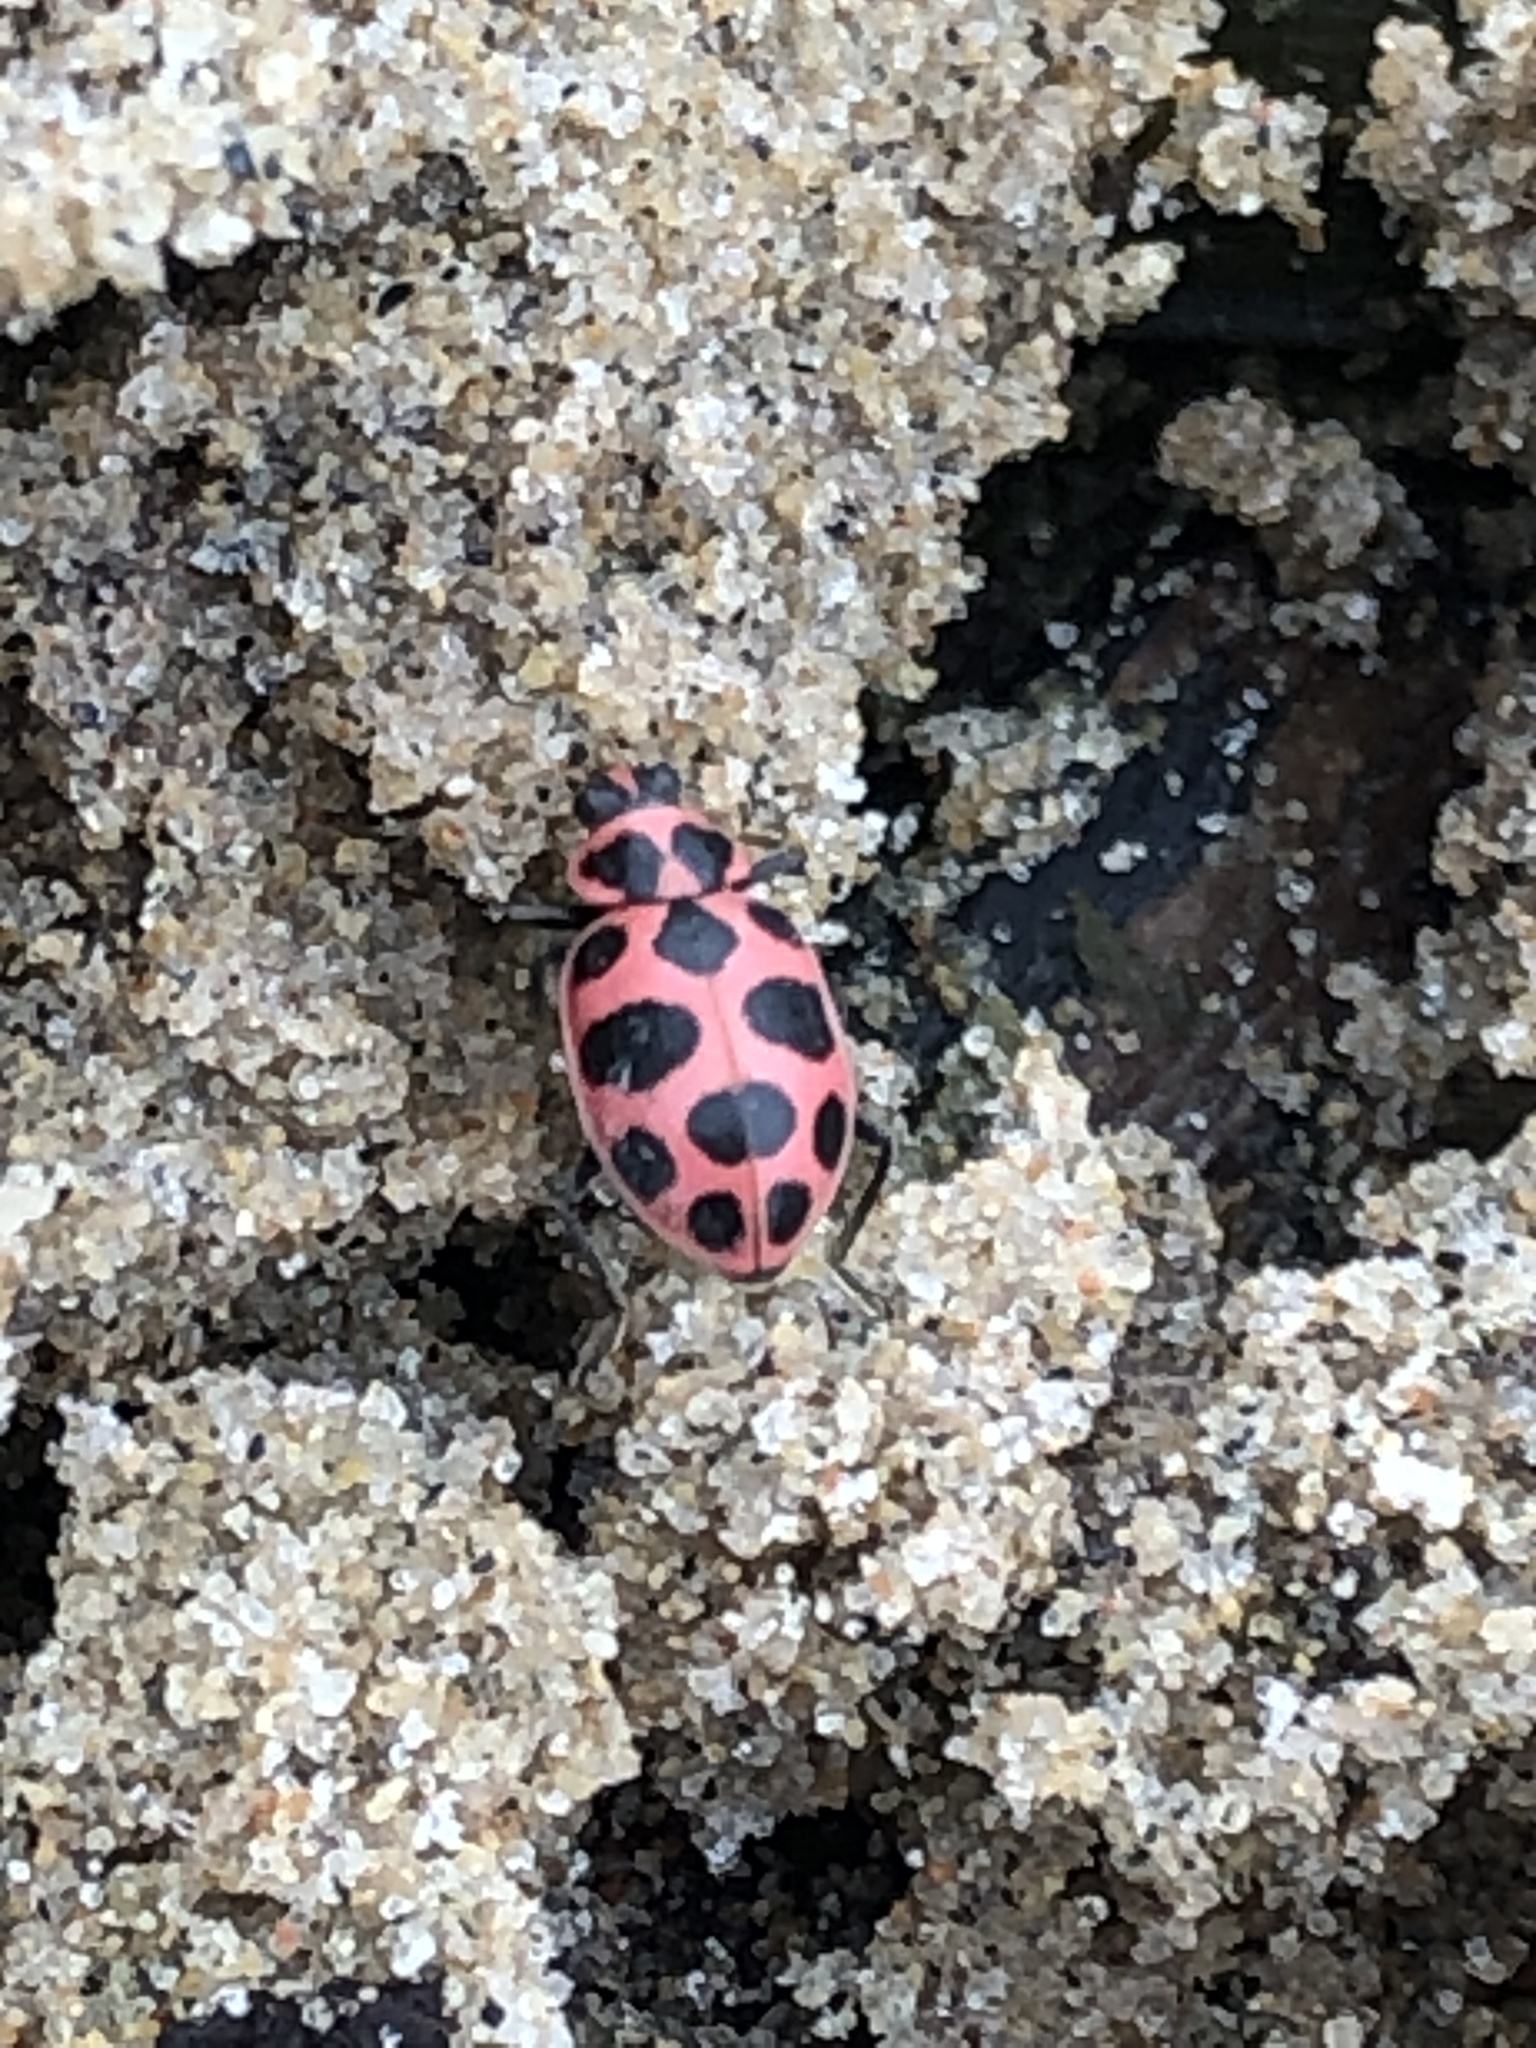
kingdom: Animalia
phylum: Arthropoda
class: Insecta
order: Coleoptera
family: Coccinellidae
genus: Coleomegilla
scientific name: Coleomegilla maculata
